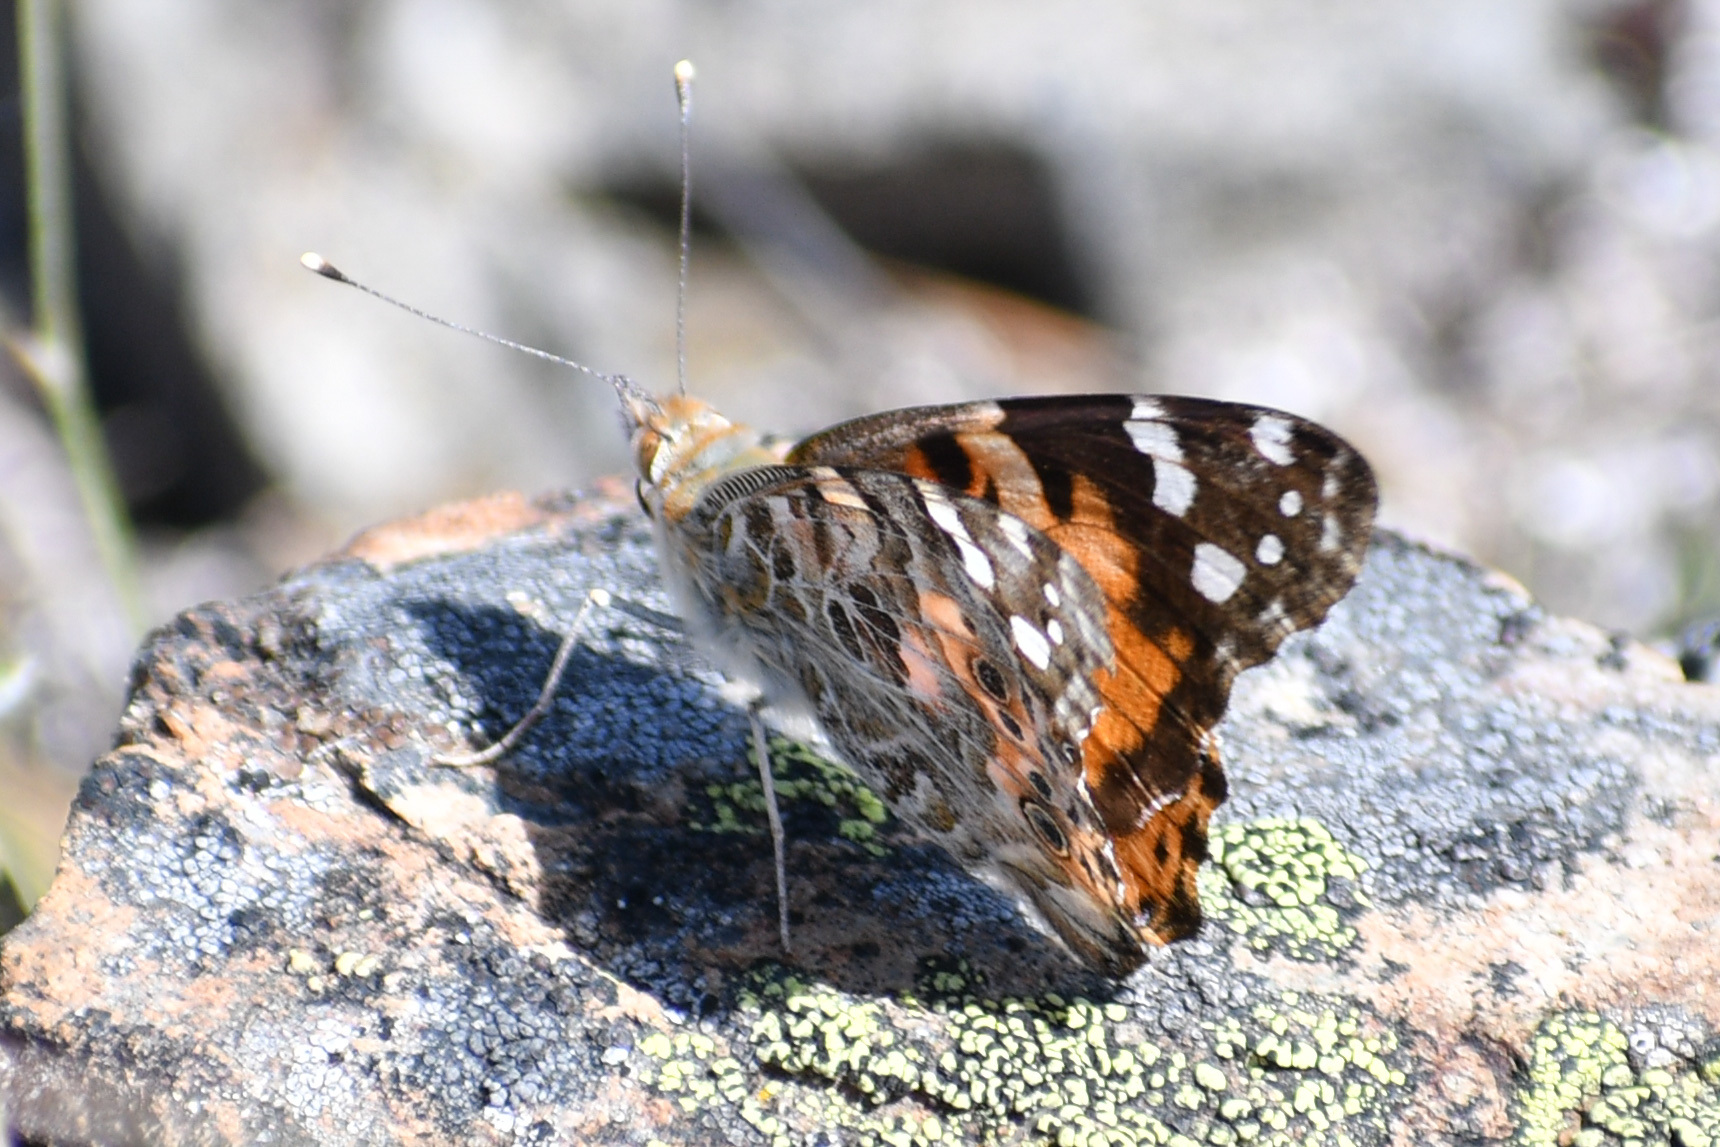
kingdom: Animalia
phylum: Arthropoda
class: Insecta
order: Lepidoptera
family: Nymphalidae
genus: Vanessa
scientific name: Vanessa cardui
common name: Painted lady
